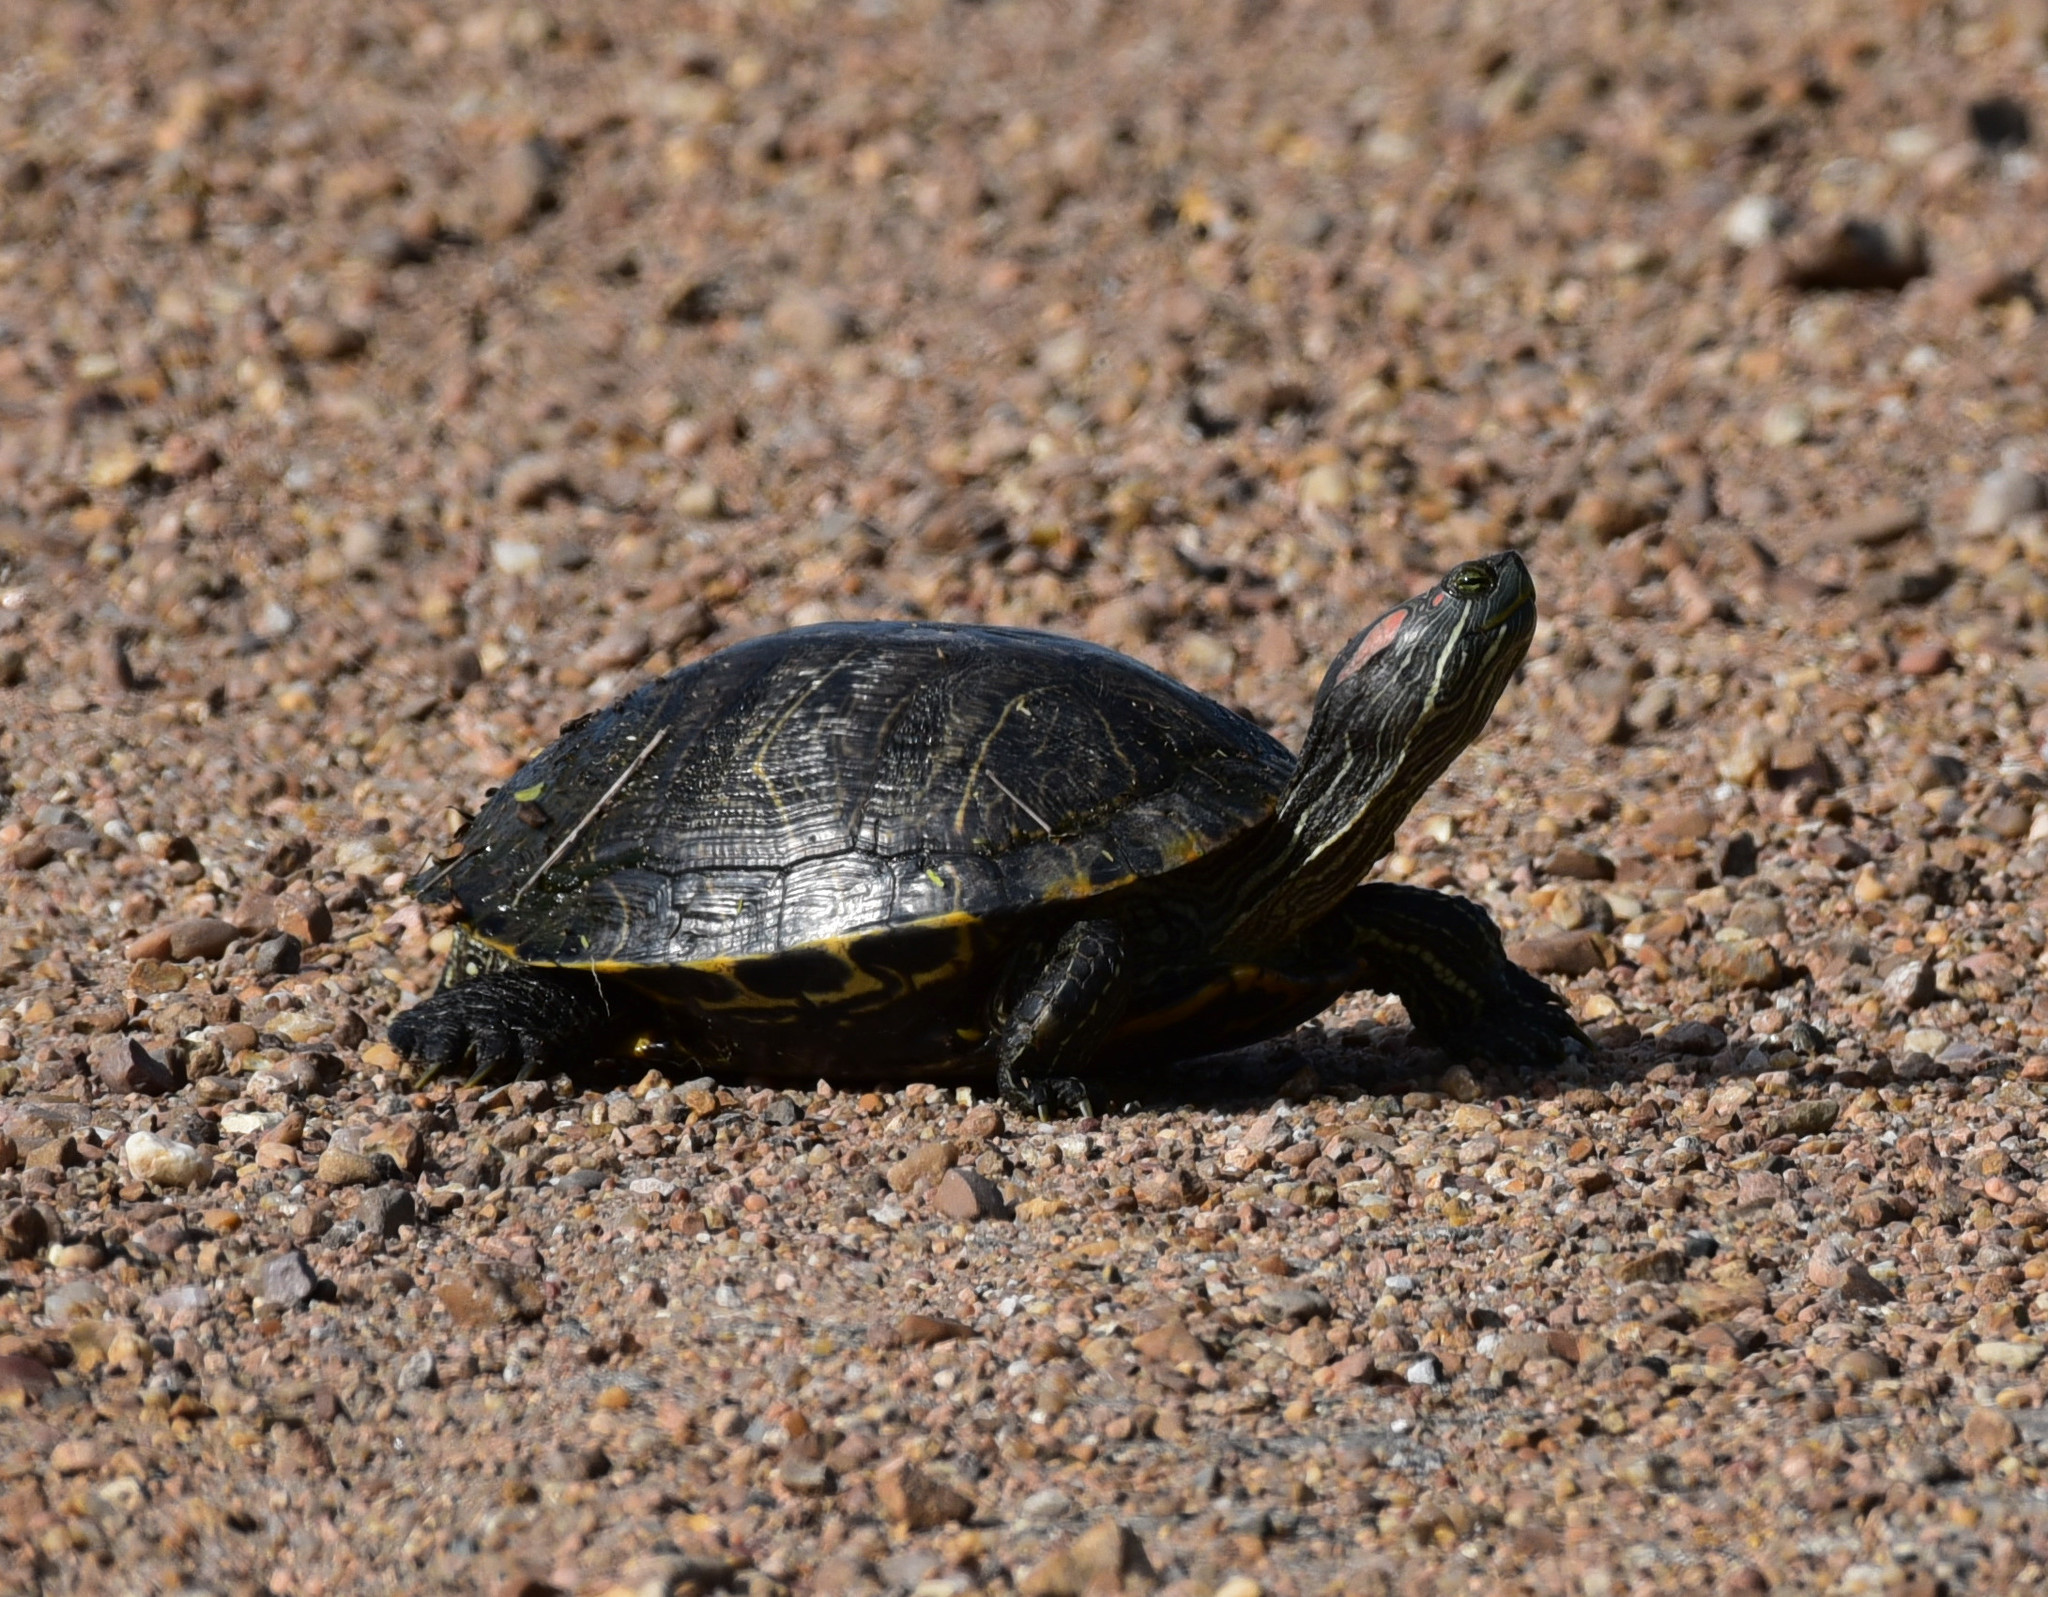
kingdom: Animalia
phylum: Chordata
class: Testudines
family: Emydidae
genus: Trachemys
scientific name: Trachemys scripta
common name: Slider
